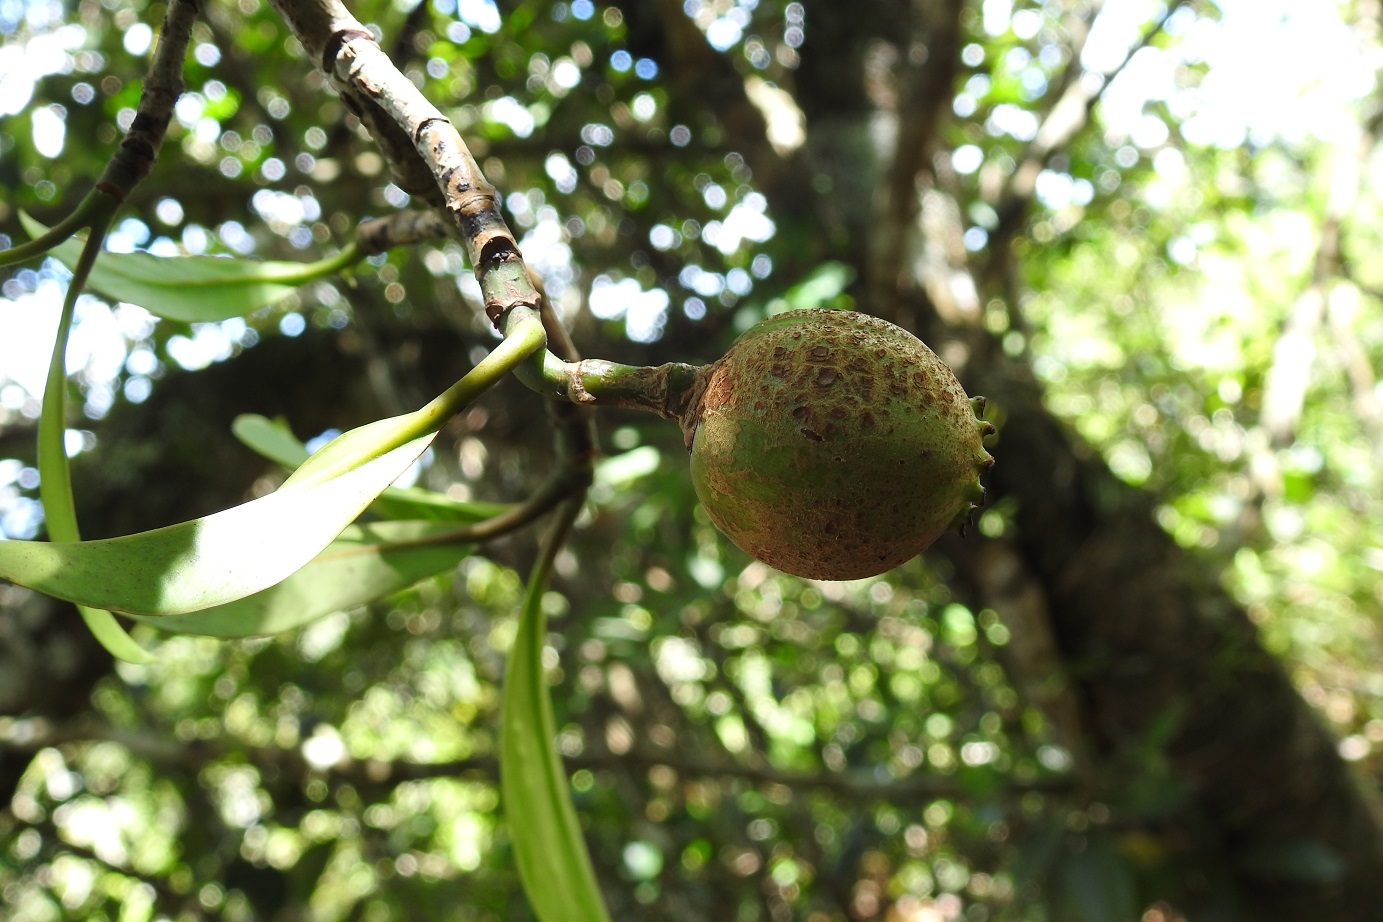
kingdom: Plantae
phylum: Tracheophyta
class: Magnoliopsida
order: Malpighiales
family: Clusiaceae
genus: Clusia
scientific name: Clusia minor
